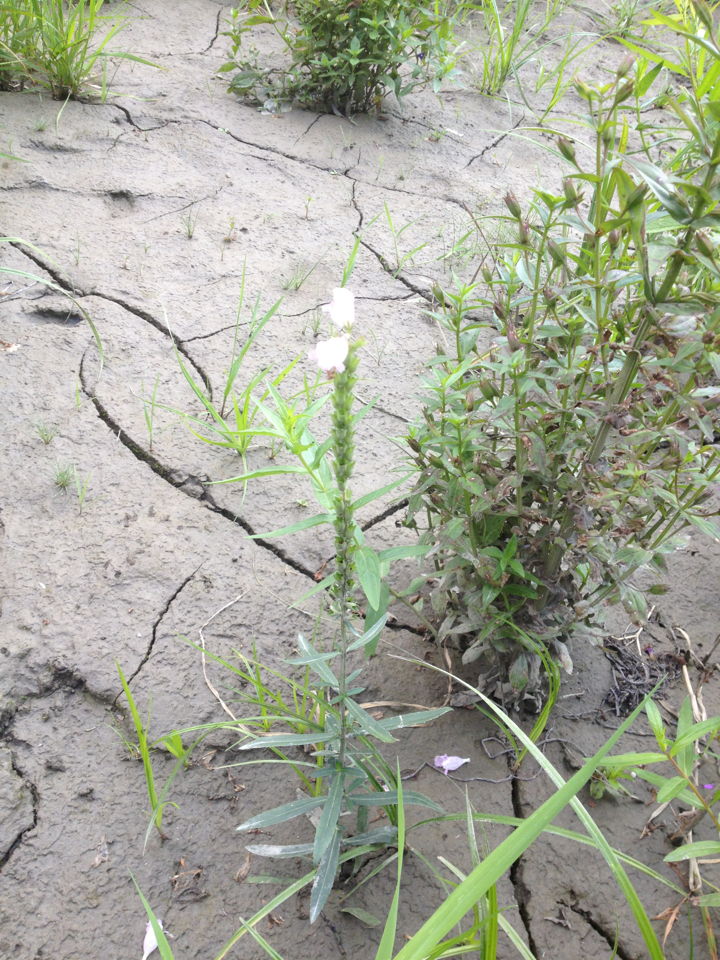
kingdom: Plantae
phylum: Tracheophyta
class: Magnoliopsida
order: Lamiales
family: Lamiaceae
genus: Physostegia
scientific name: Physostegia virginiana
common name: Obedient-plant
